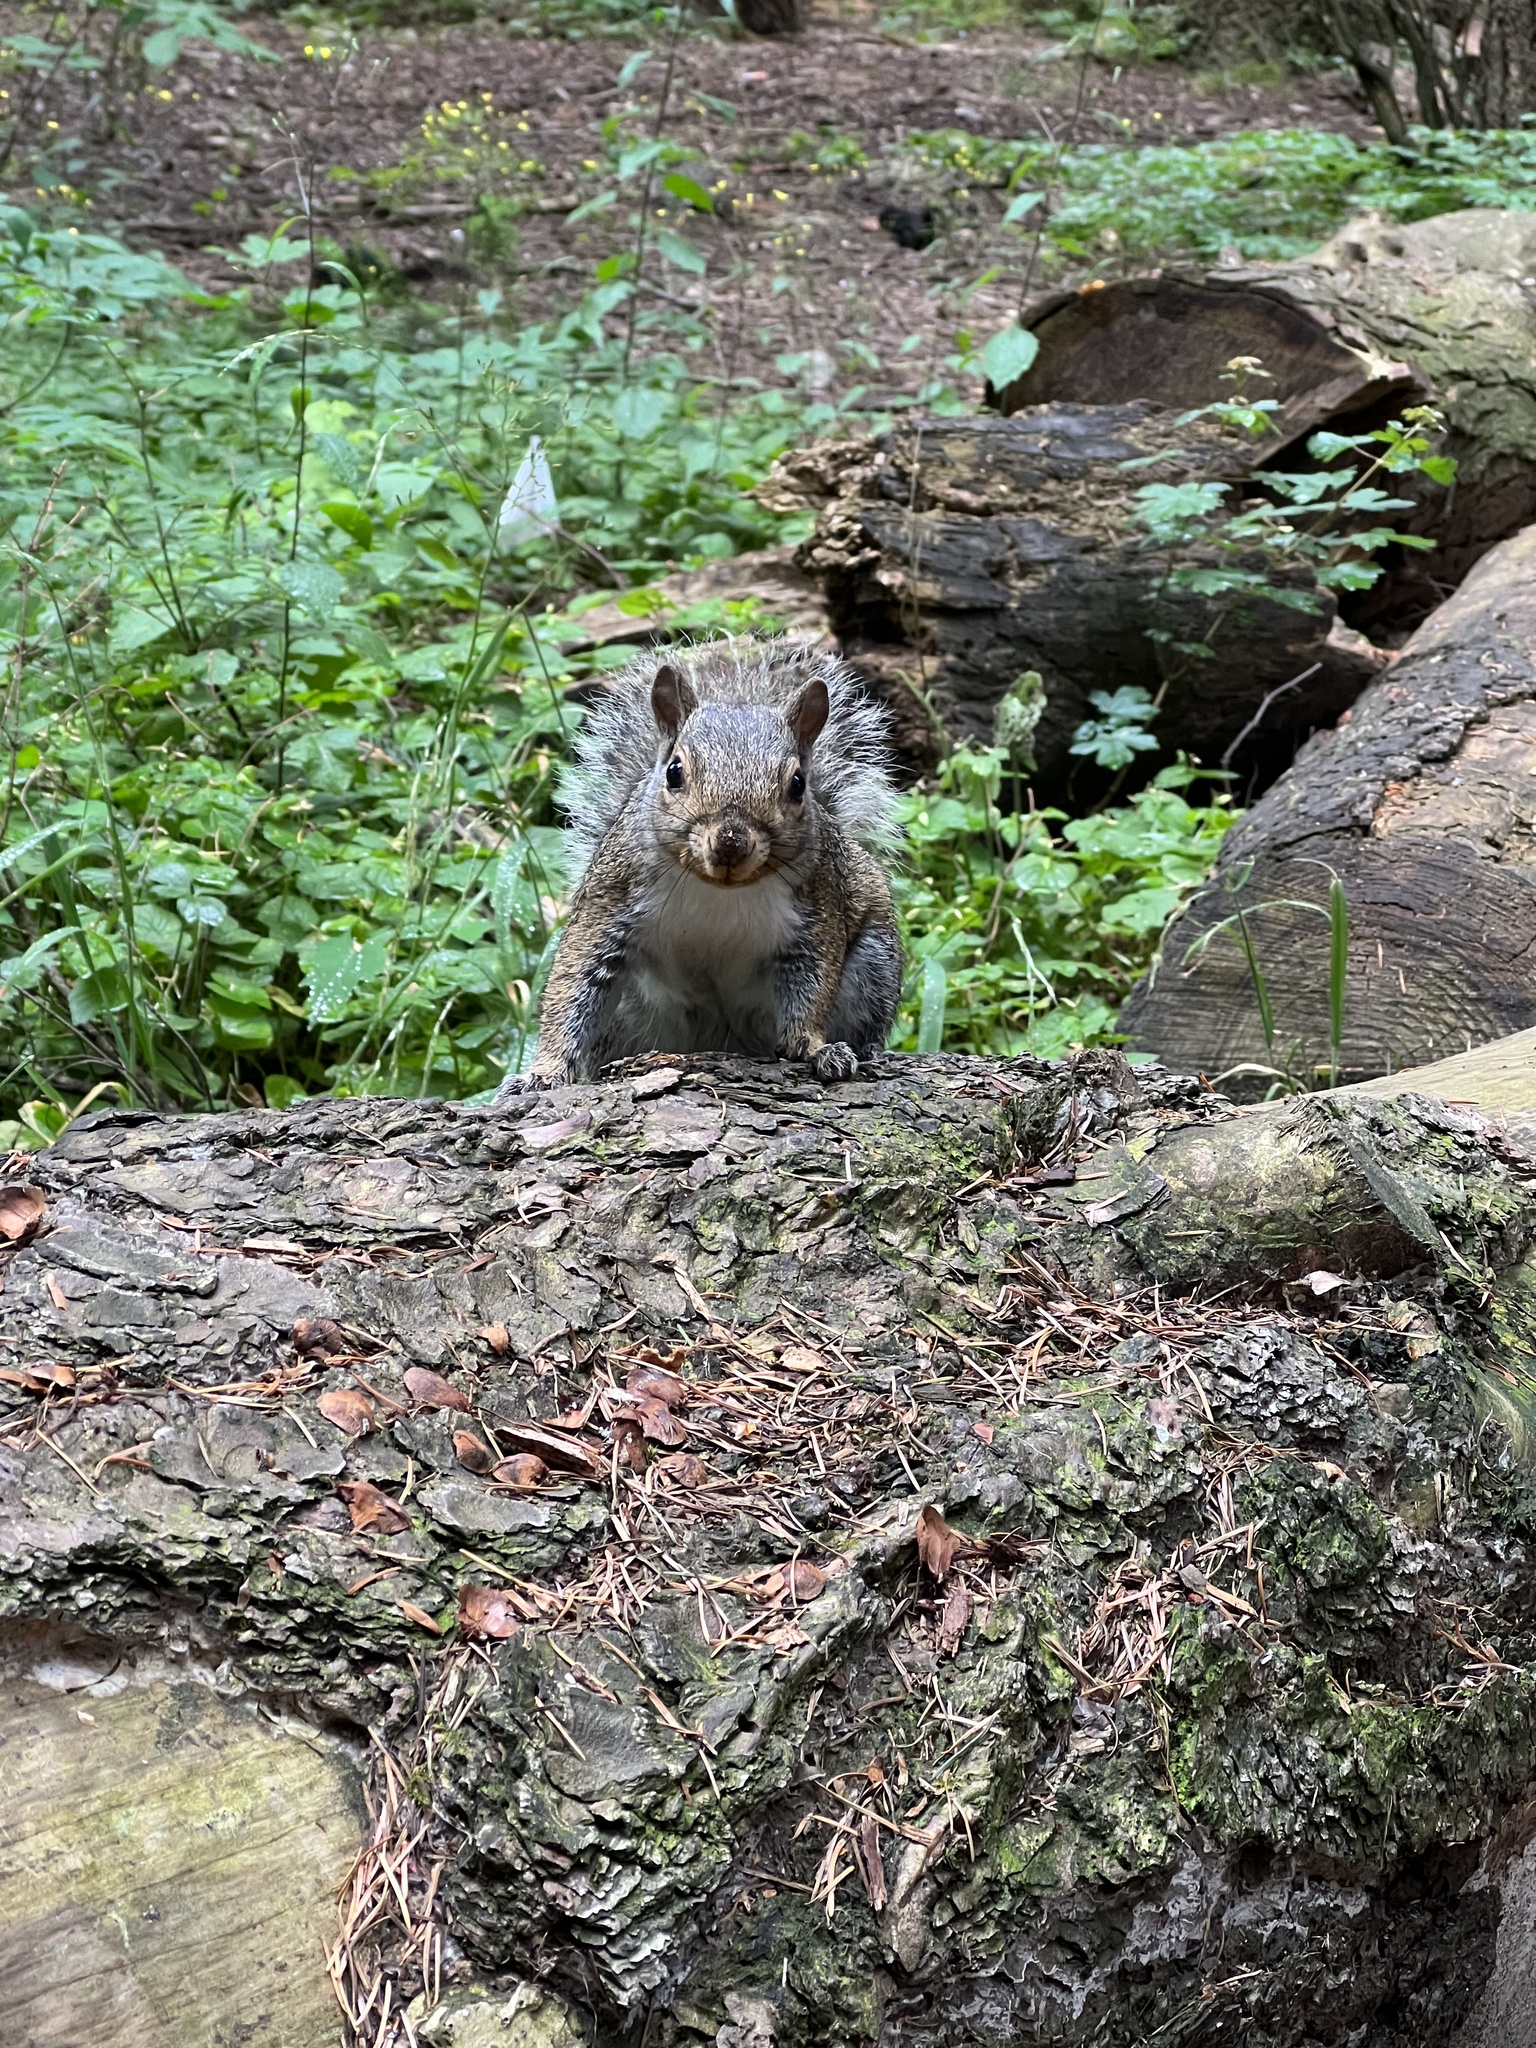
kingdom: Animalia
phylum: Chordata
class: Mammalia
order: Rodentia
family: Sciuridae
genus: Sciurus
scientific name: Sciurus carolinensis
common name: Eastern gray squirrel
